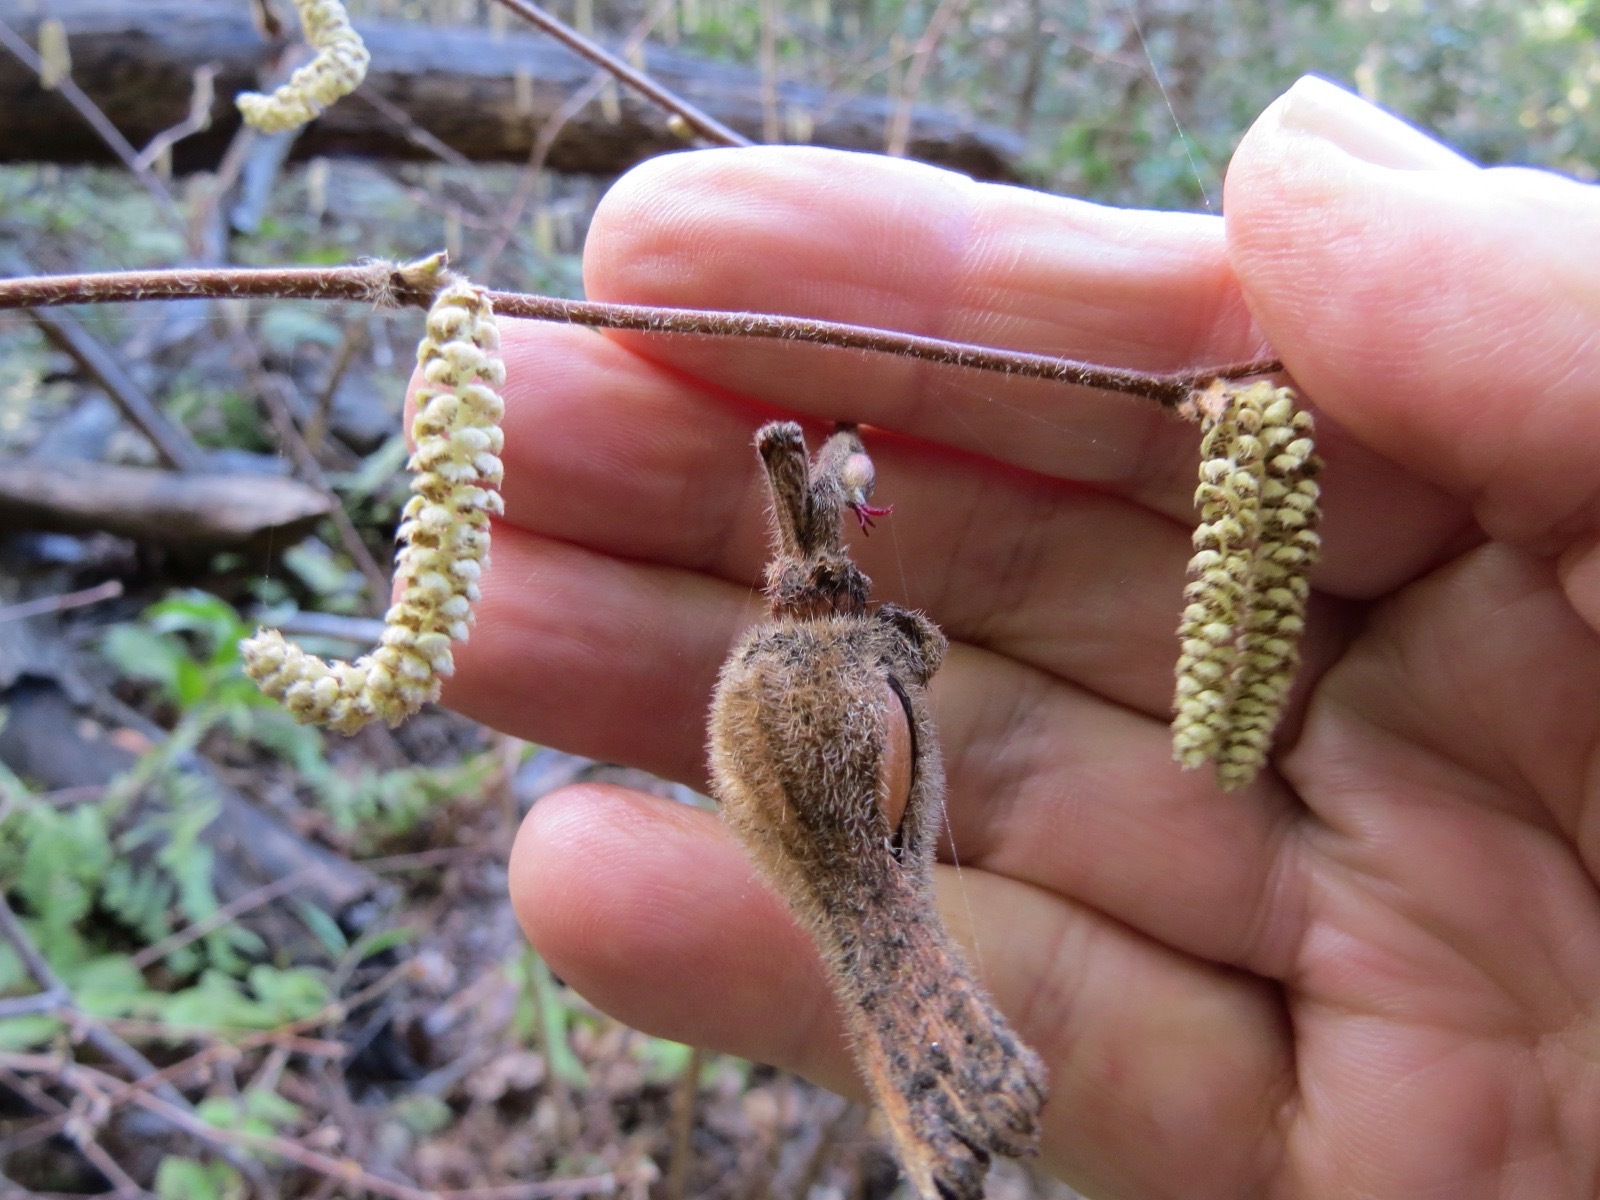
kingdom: Plantae
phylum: Tracheophyta
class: Magnoliopsida
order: Fagales
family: Betulaceae
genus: Corylus
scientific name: Corylus cornuta
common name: Beaked hazel
